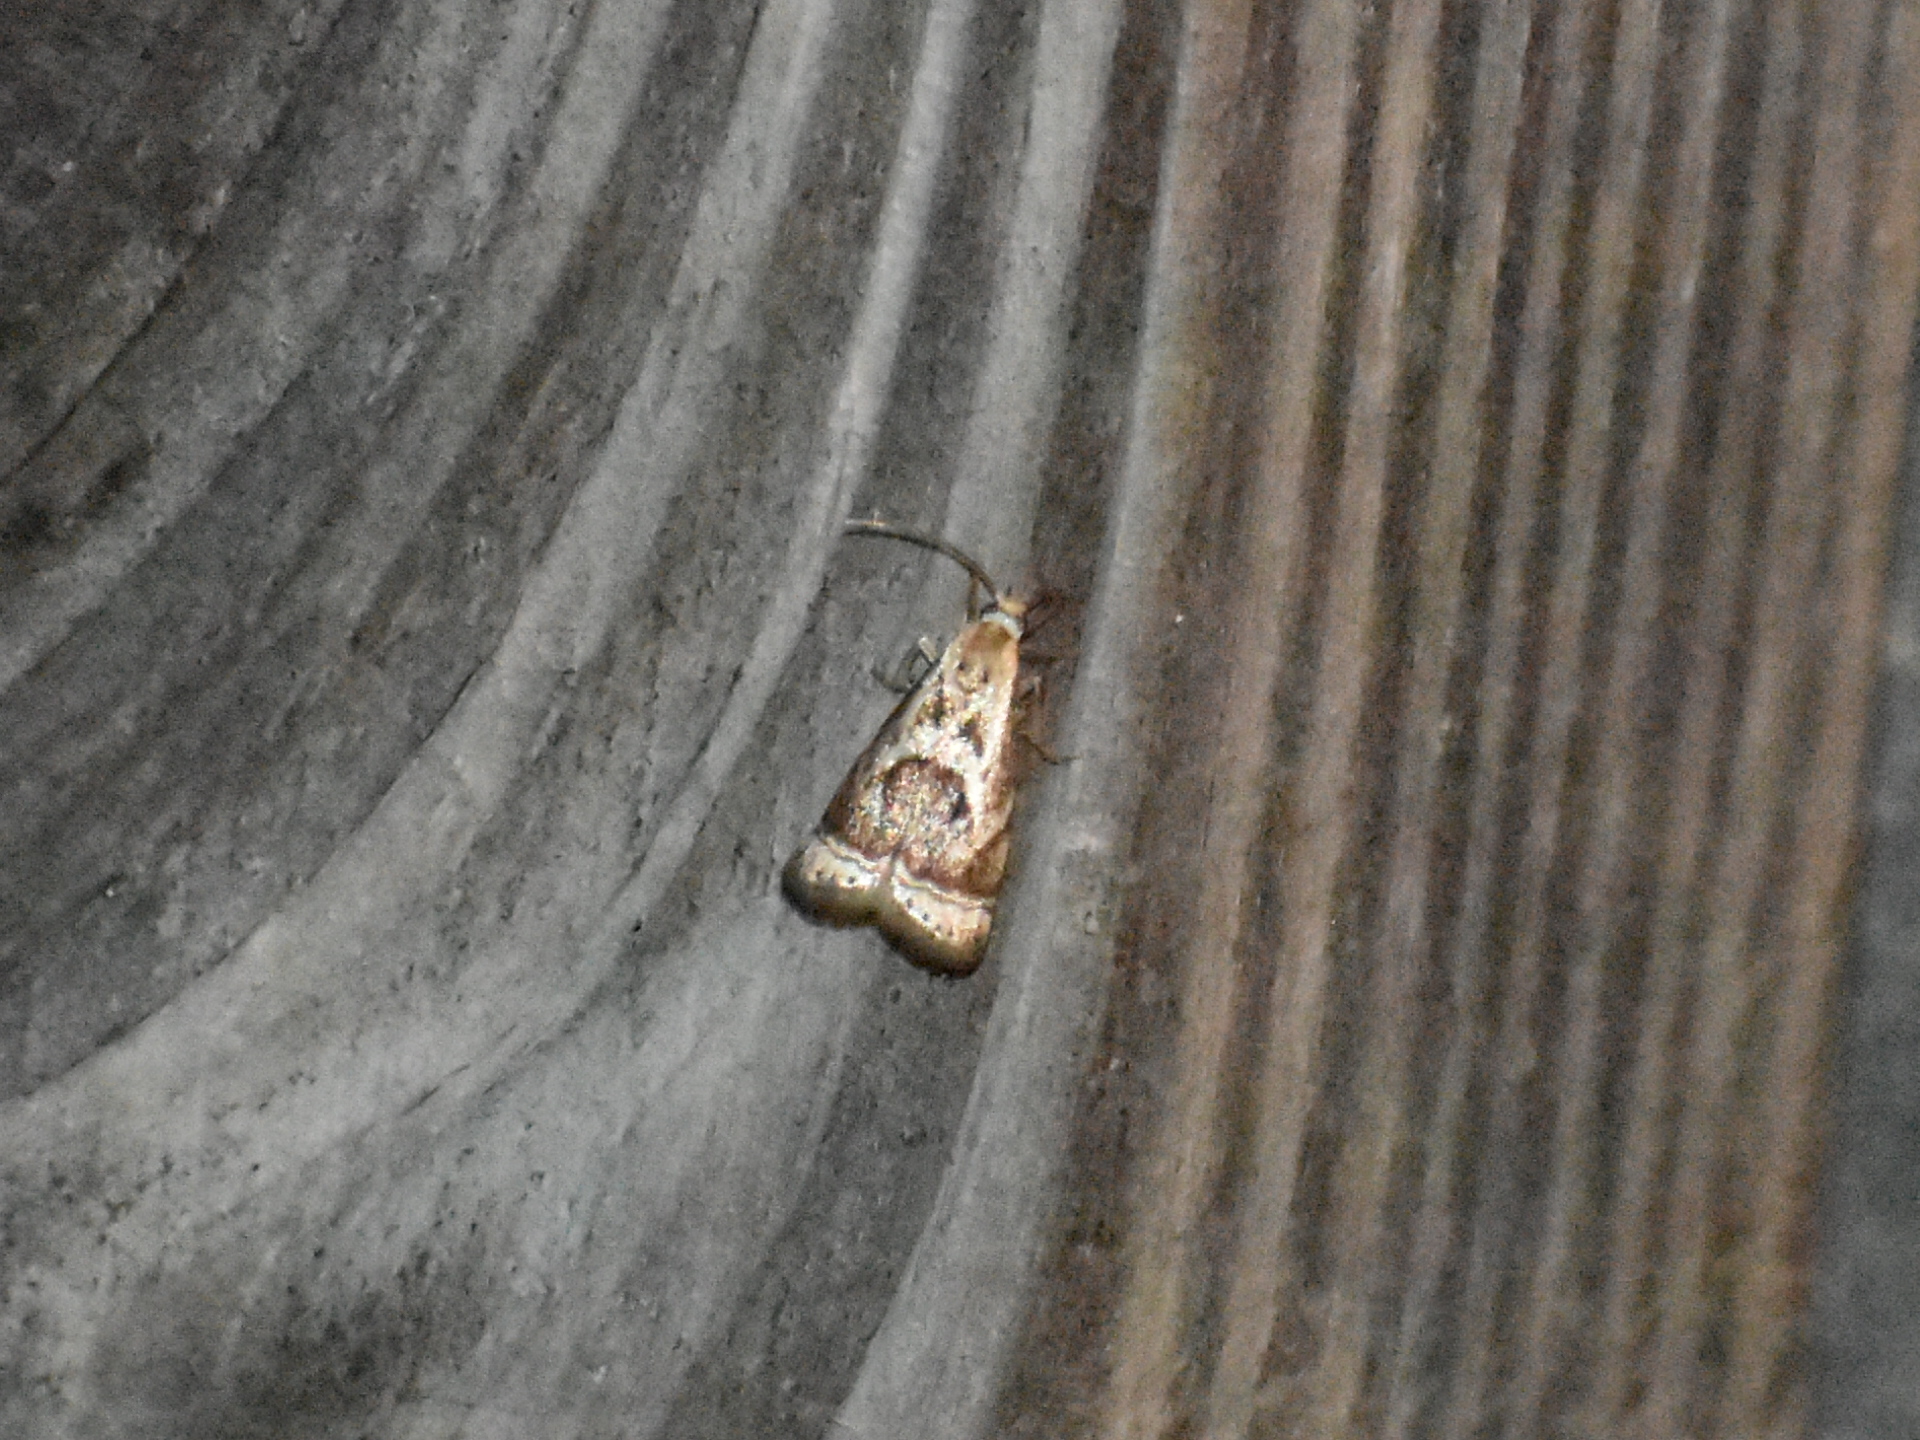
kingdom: Animalia
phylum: Arthropoda
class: Insecta
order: Lepidoptera
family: Crambidae
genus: Microcrambus
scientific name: Microcrambus elegans
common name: Elegant grass-veneer
